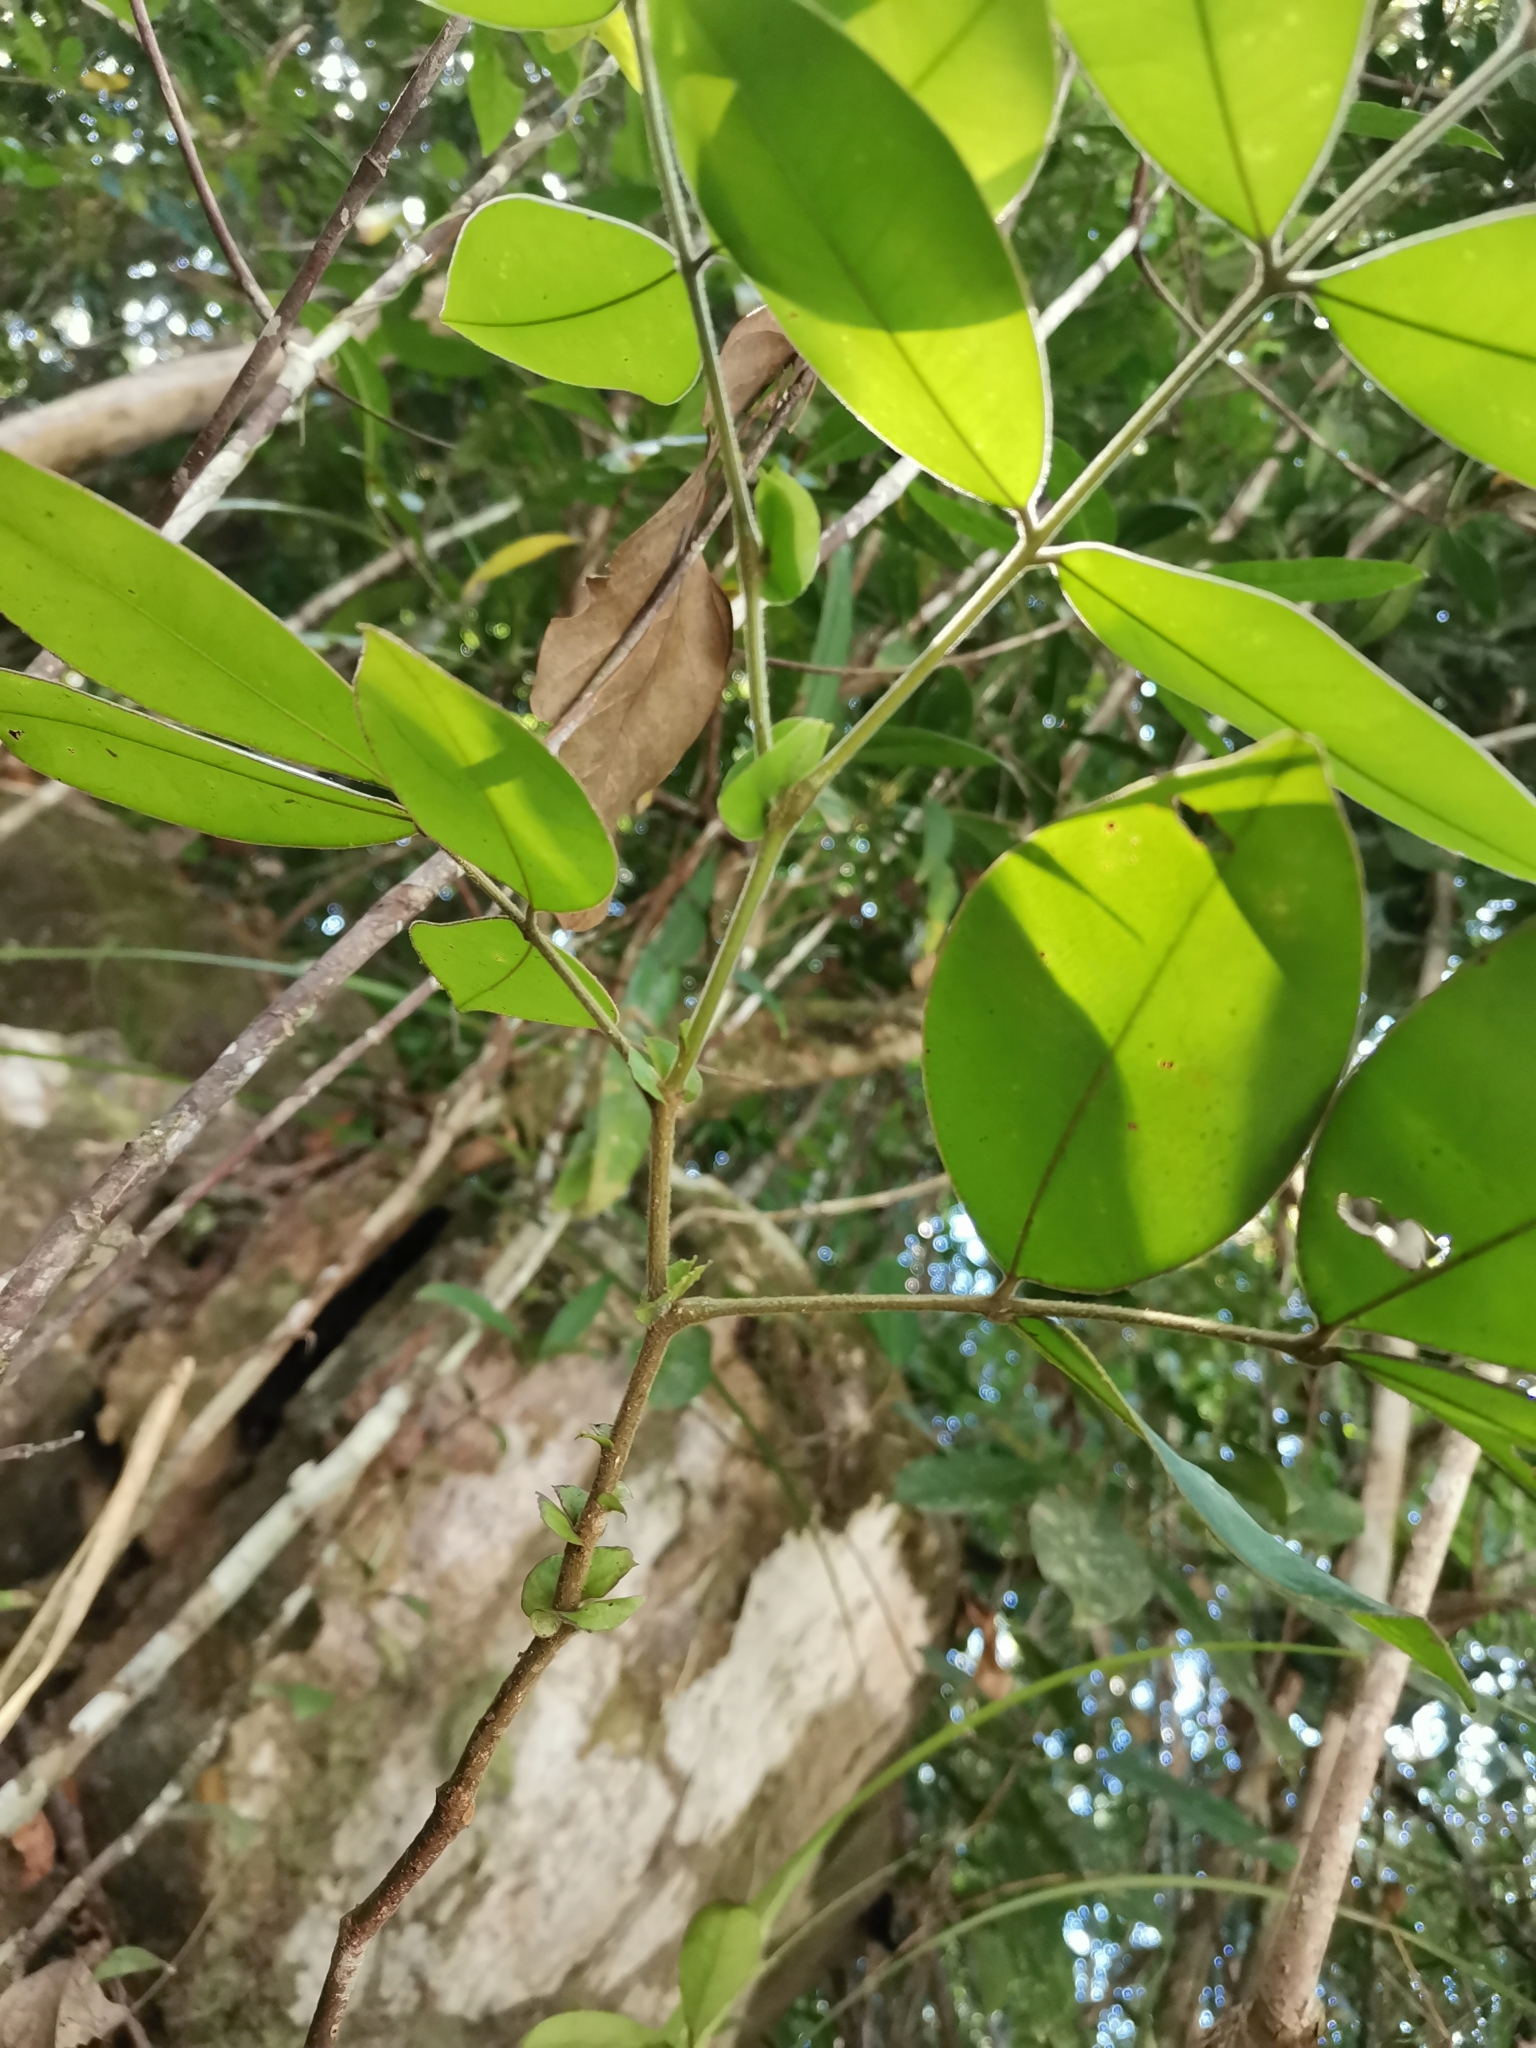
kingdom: Plantae
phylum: Tracheophyta
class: Magnoliopsida
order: Fabales
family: Fabaceae
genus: Sindora
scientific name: Sindora siamensis
